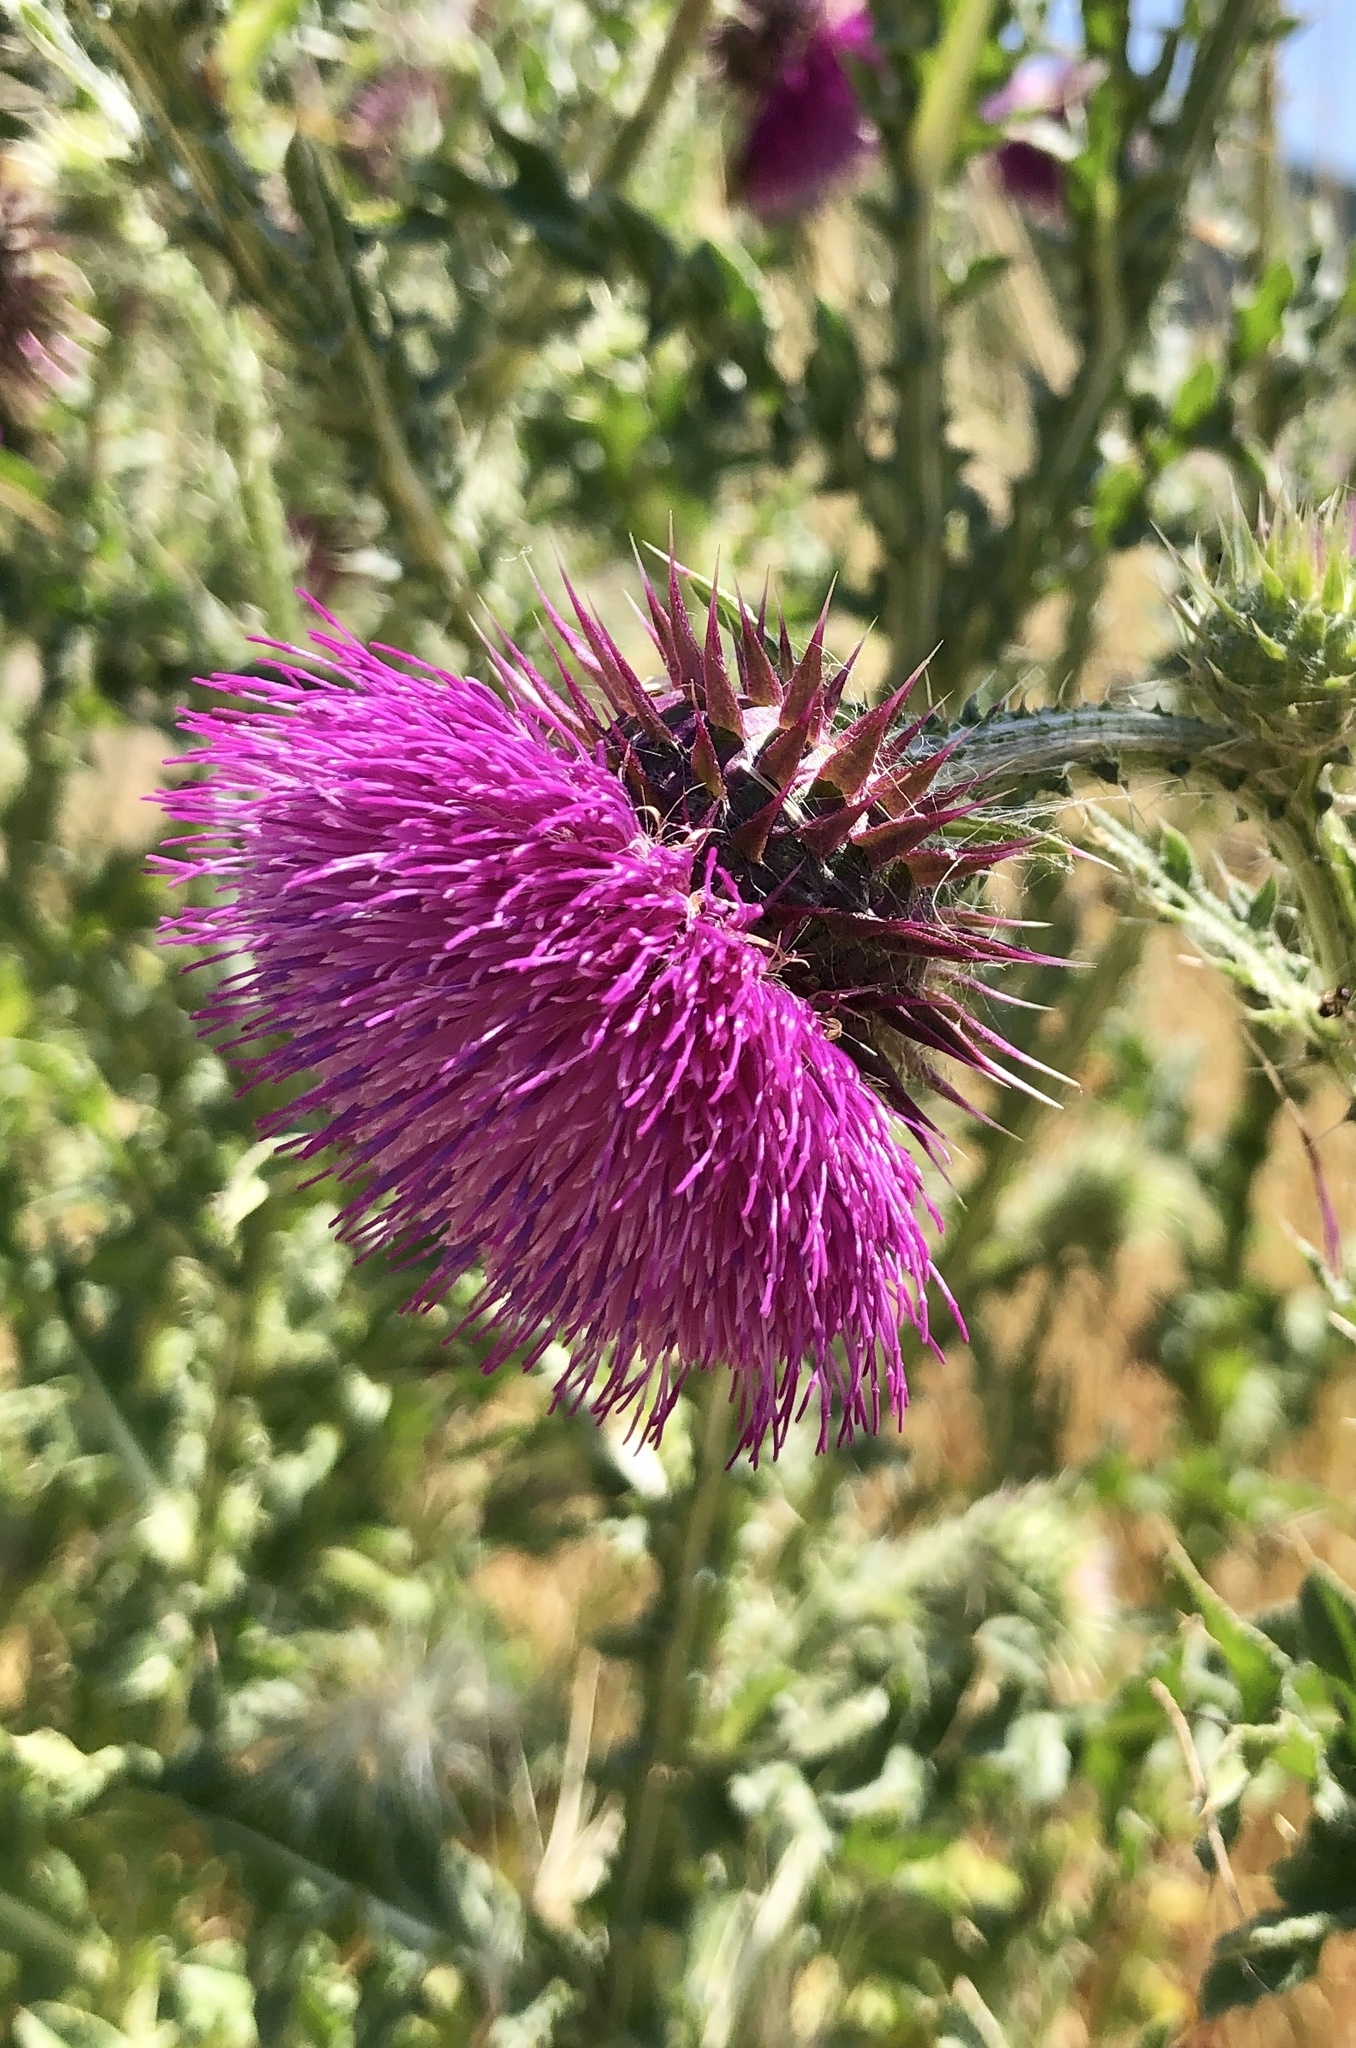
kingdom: Plantae
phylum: Tracheophyta
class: Magnoliopsida
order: Asterales
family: Asteraceae
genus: Carduus
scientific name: Carduus nutans
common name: Musk thistle
